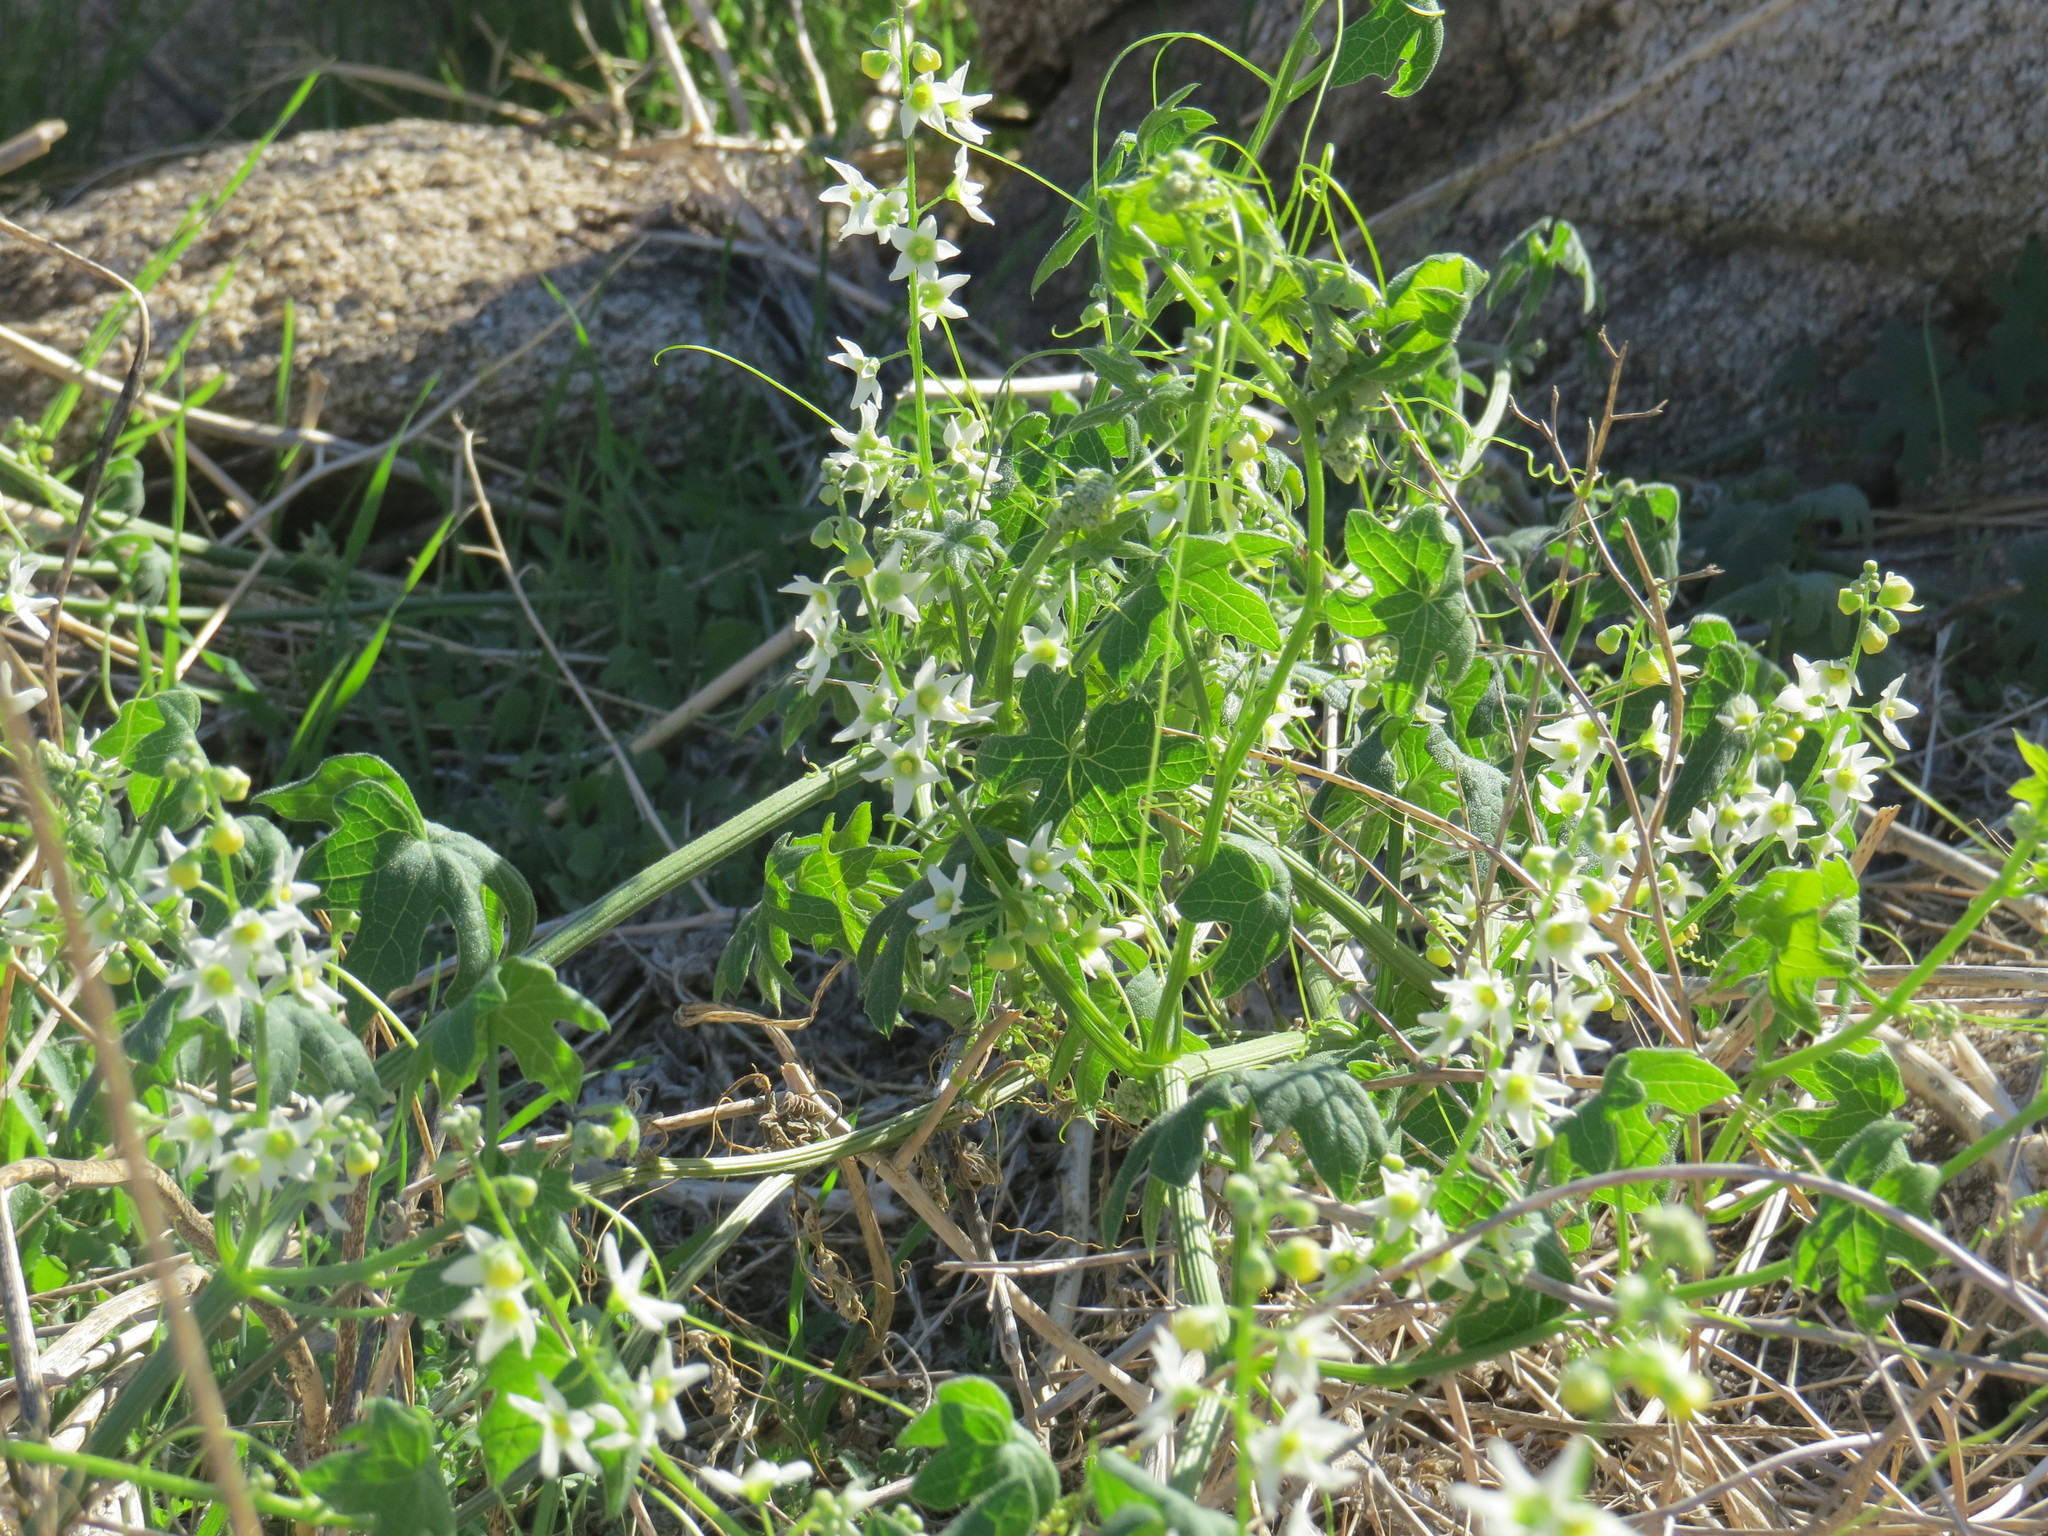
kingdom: Plantae
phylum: Tracheophyta
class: Magnoliopsida
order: Cucurbitales
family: Cucurbitaceae
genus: Marah
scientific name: Marah macrocarpa
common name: Cucamonga manroot
